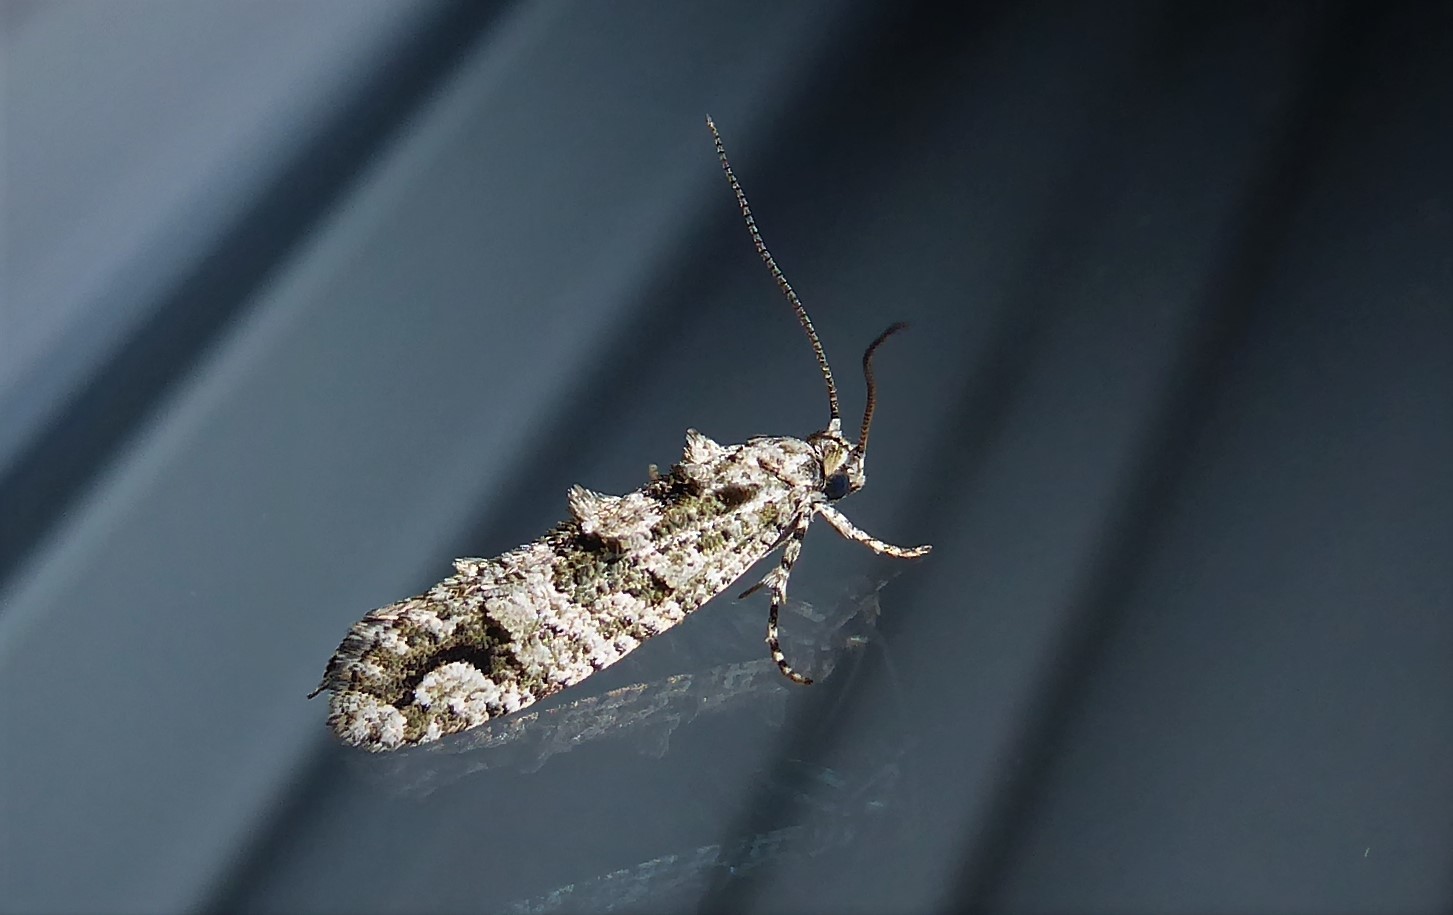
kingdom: Animalia
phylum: Arthropoda
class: Insecta
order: Lepidoptera
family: Tineidae
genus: Lysiphragma
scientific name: Lysiphragma howesii
